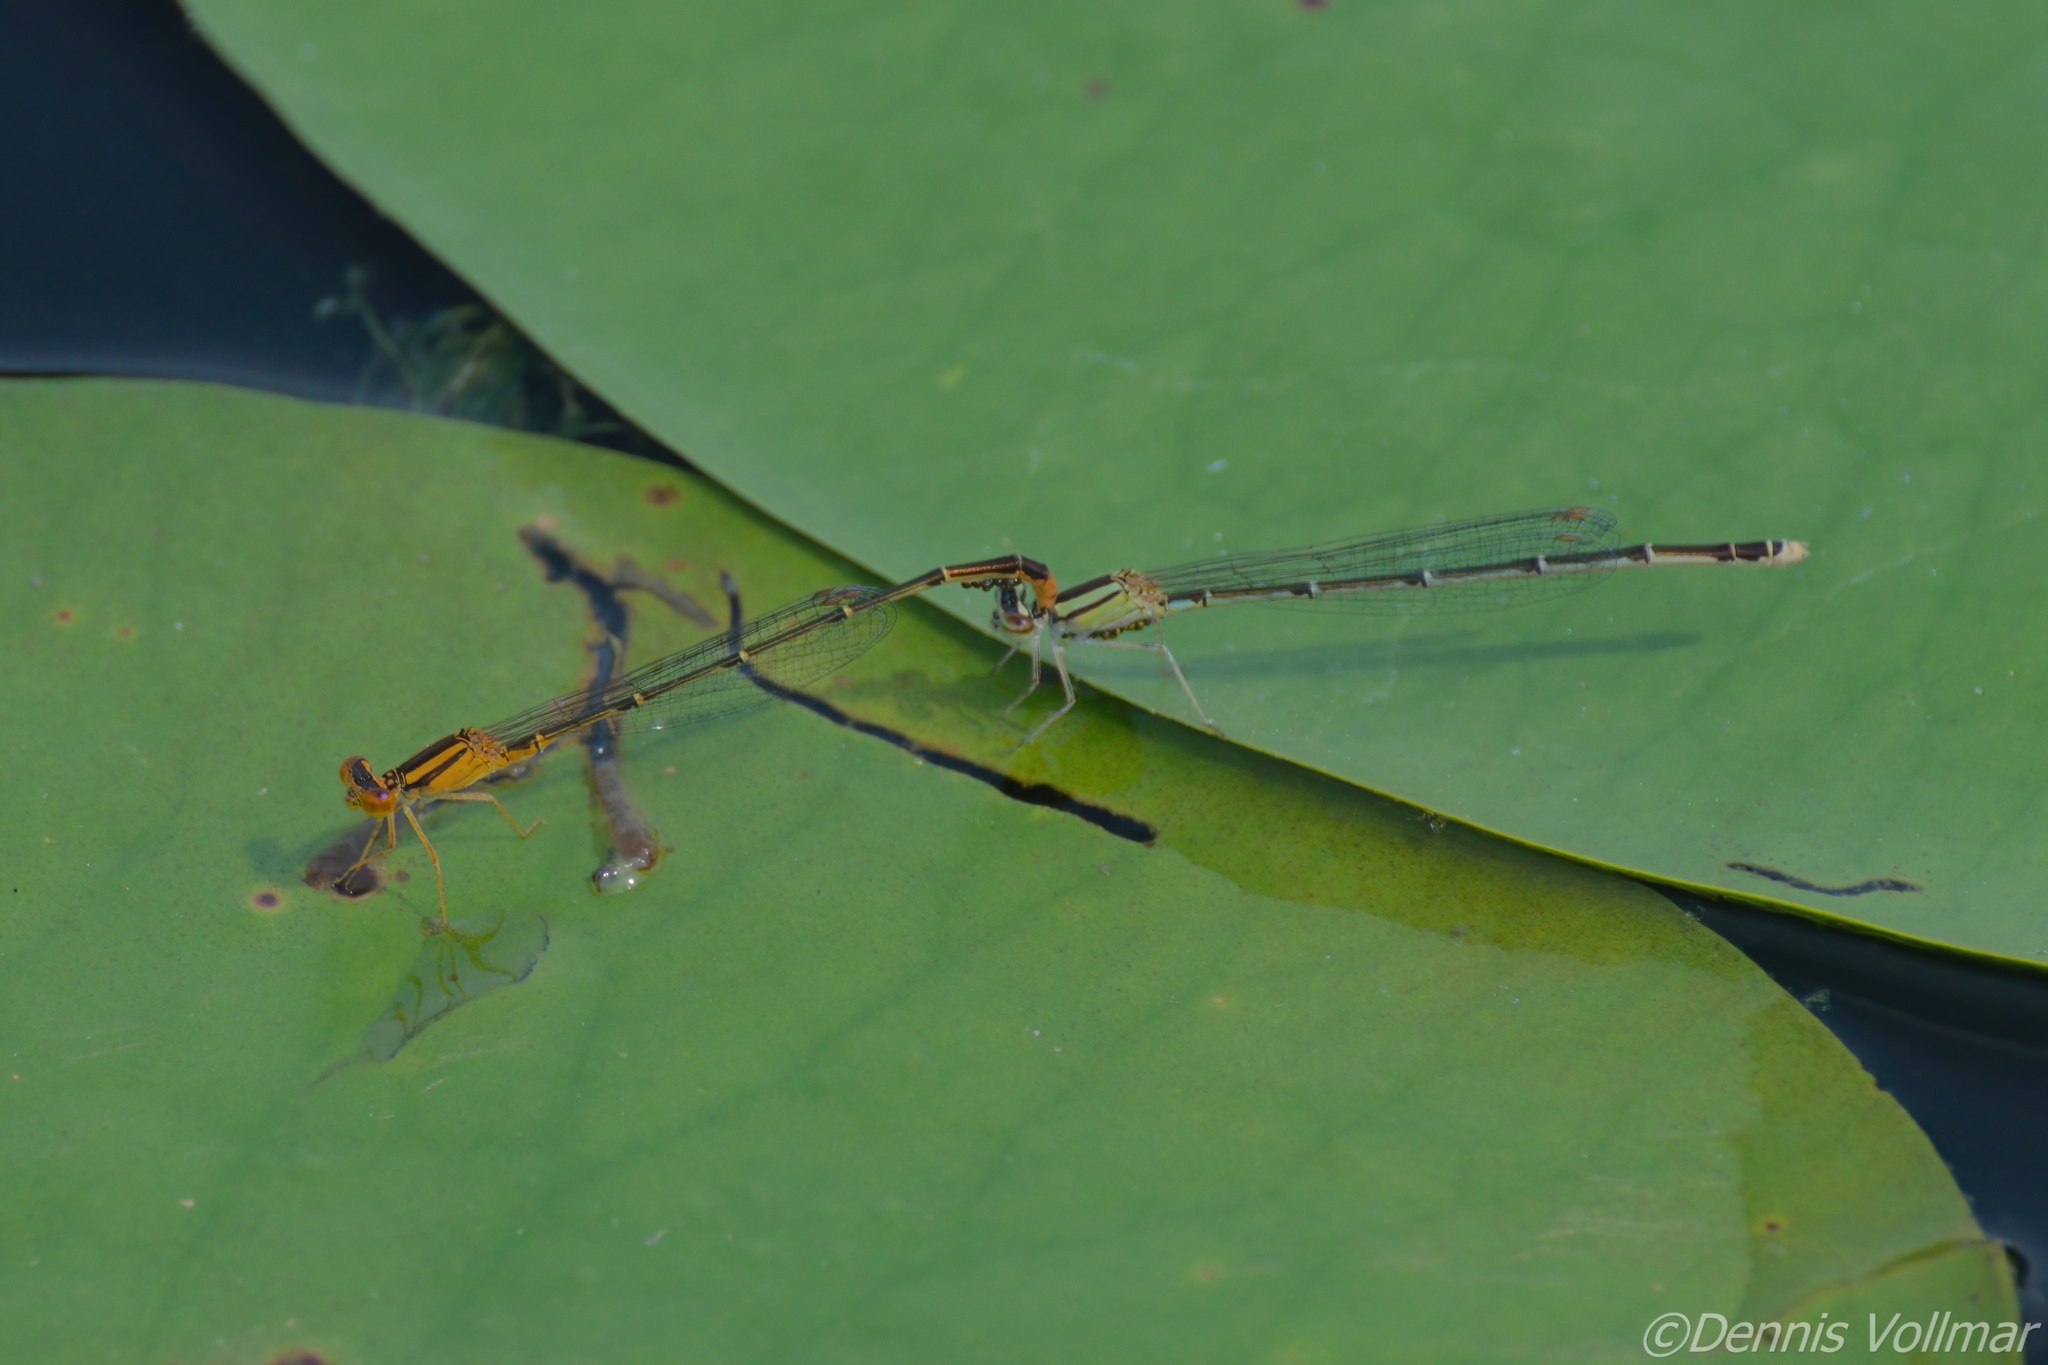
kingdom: Animalia
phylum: Arthropoda
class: Insecta
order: Odonata
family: Coenagrionidae
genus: Enallagma
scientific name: Enallagma signatum
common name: Orange bluet
